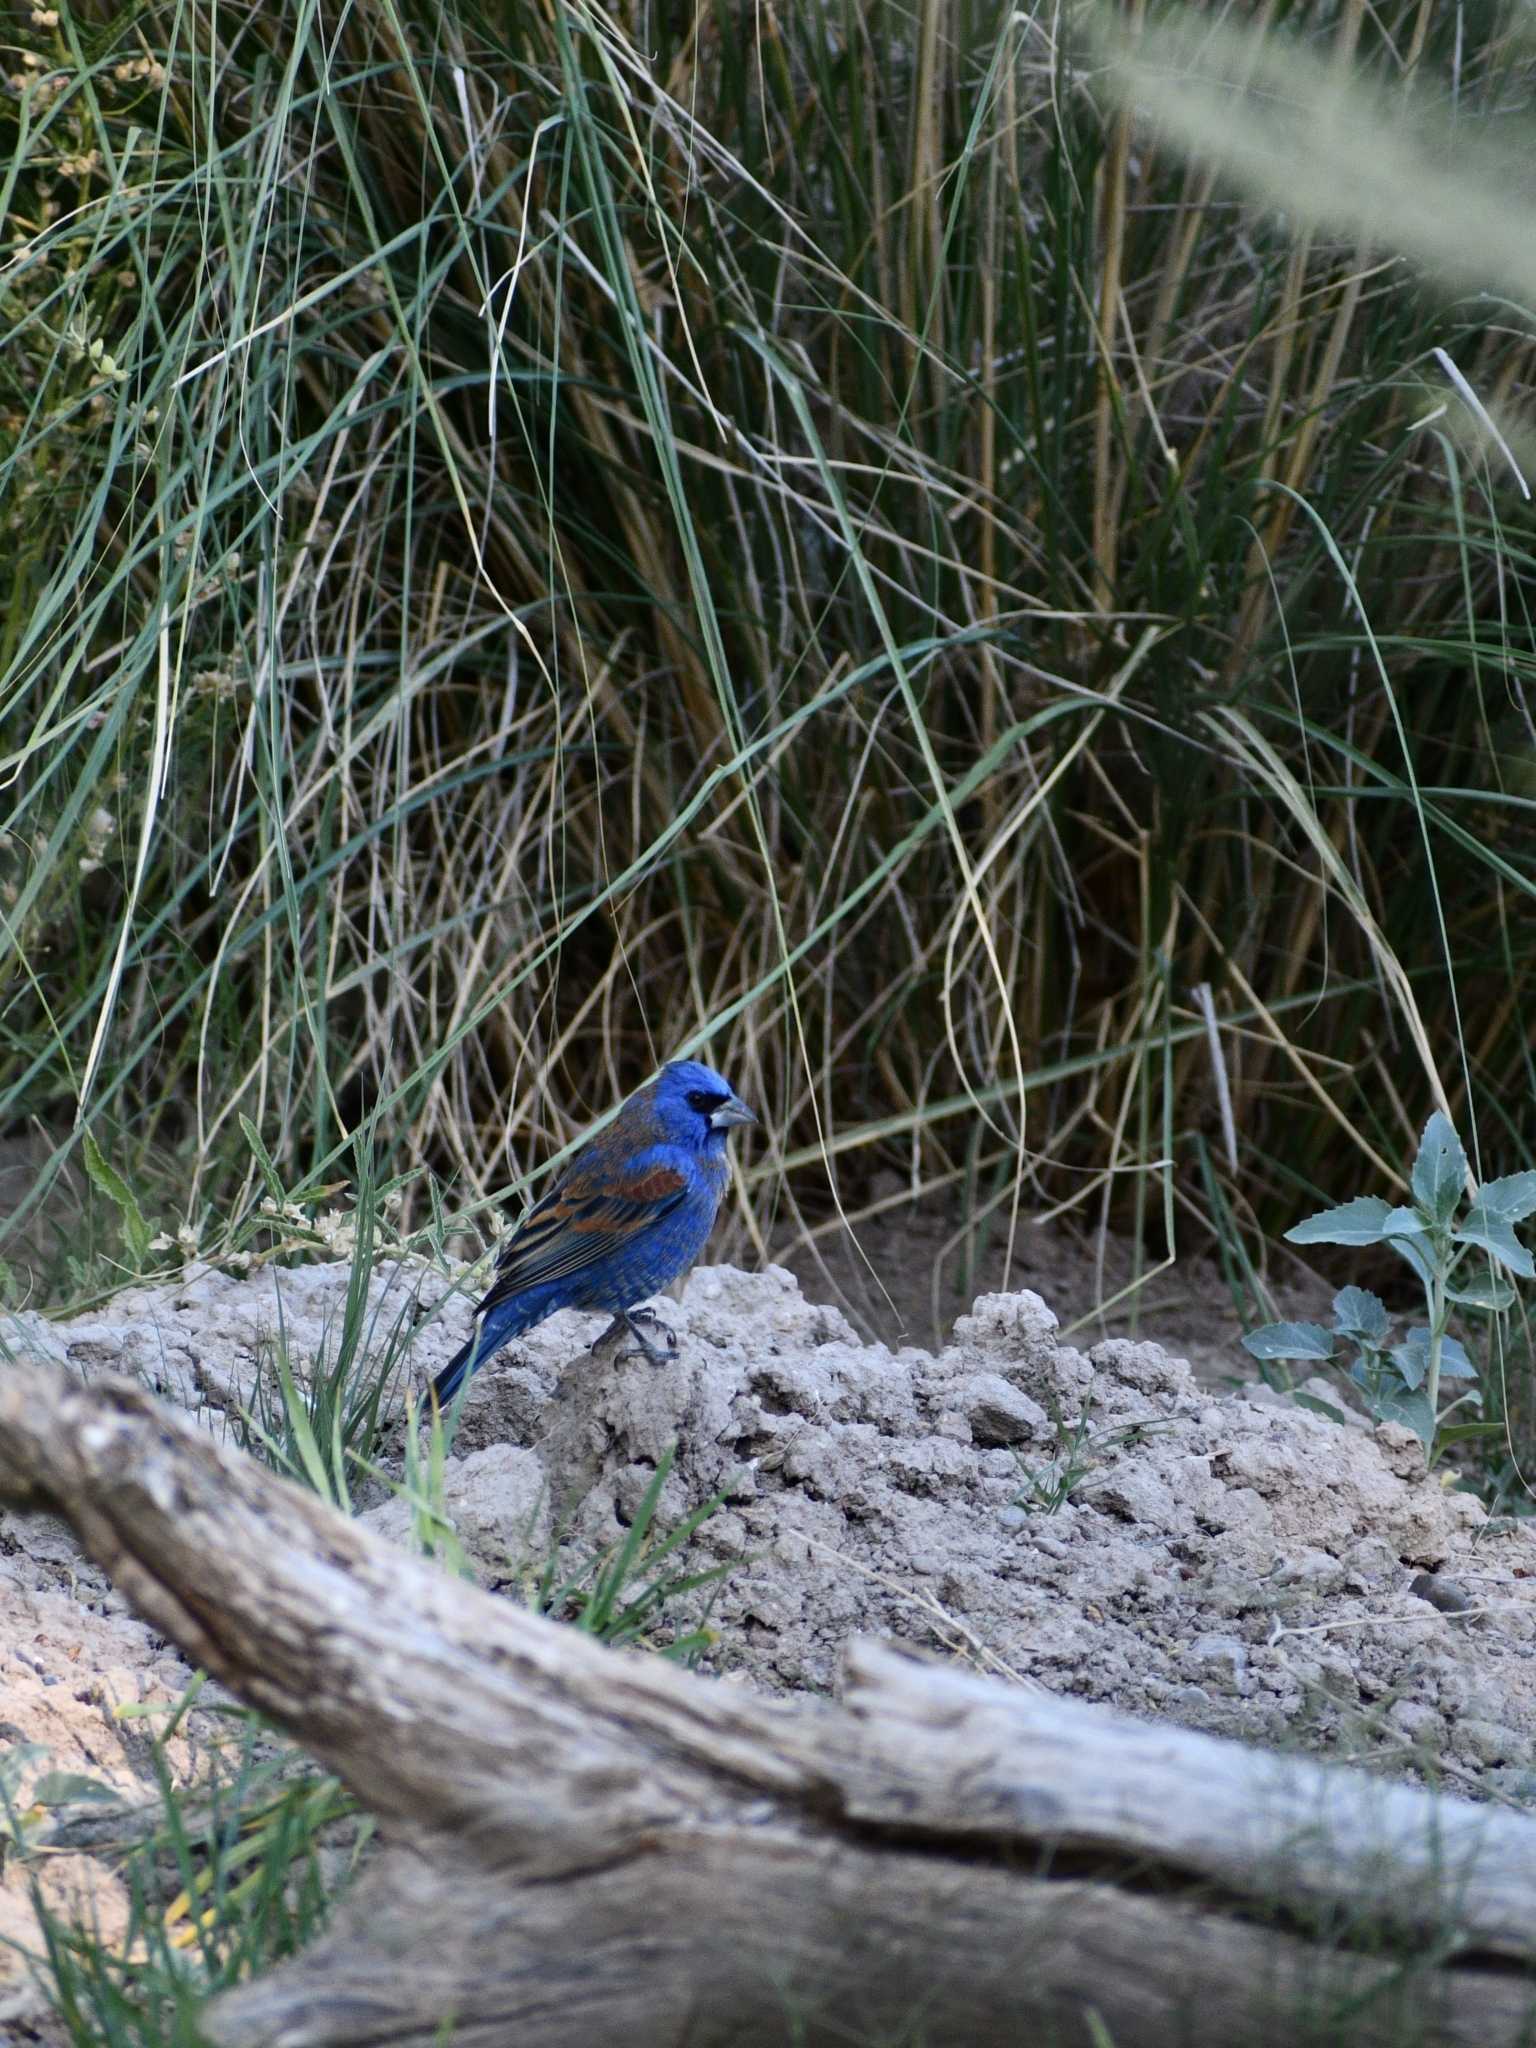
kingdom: Animalia
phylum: Chordata
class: Aves
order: Passeriformes
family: Cardinalidae
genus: Passerina
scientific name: Passerina caerulea
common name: Blue grosbeak
